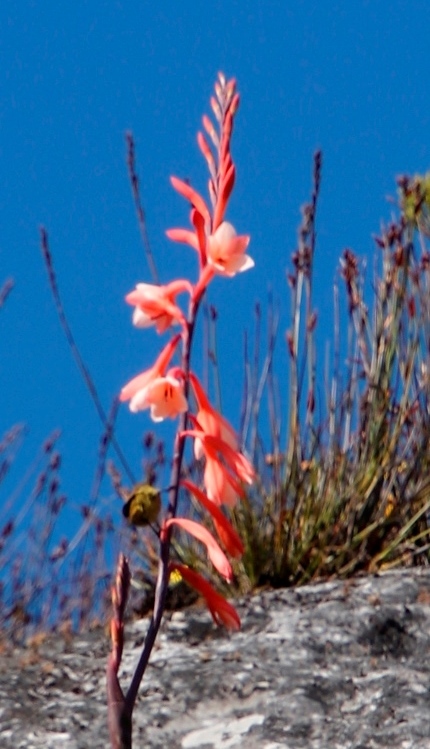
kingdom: Plantae
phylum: Tracheophyta
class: Liliopsida
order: Asparagales
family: Iridaceae
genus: Watsonia
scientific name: Watsonia tabularis
